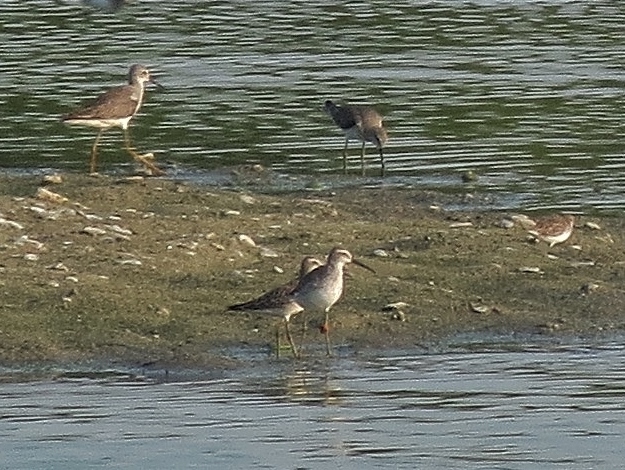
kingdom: Animalia
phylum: Chordata
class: Aves
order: Charadriiformes
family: Scolopacidae
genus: Calidris
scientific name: Calidris himantopus
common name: Stilt sandpiper
